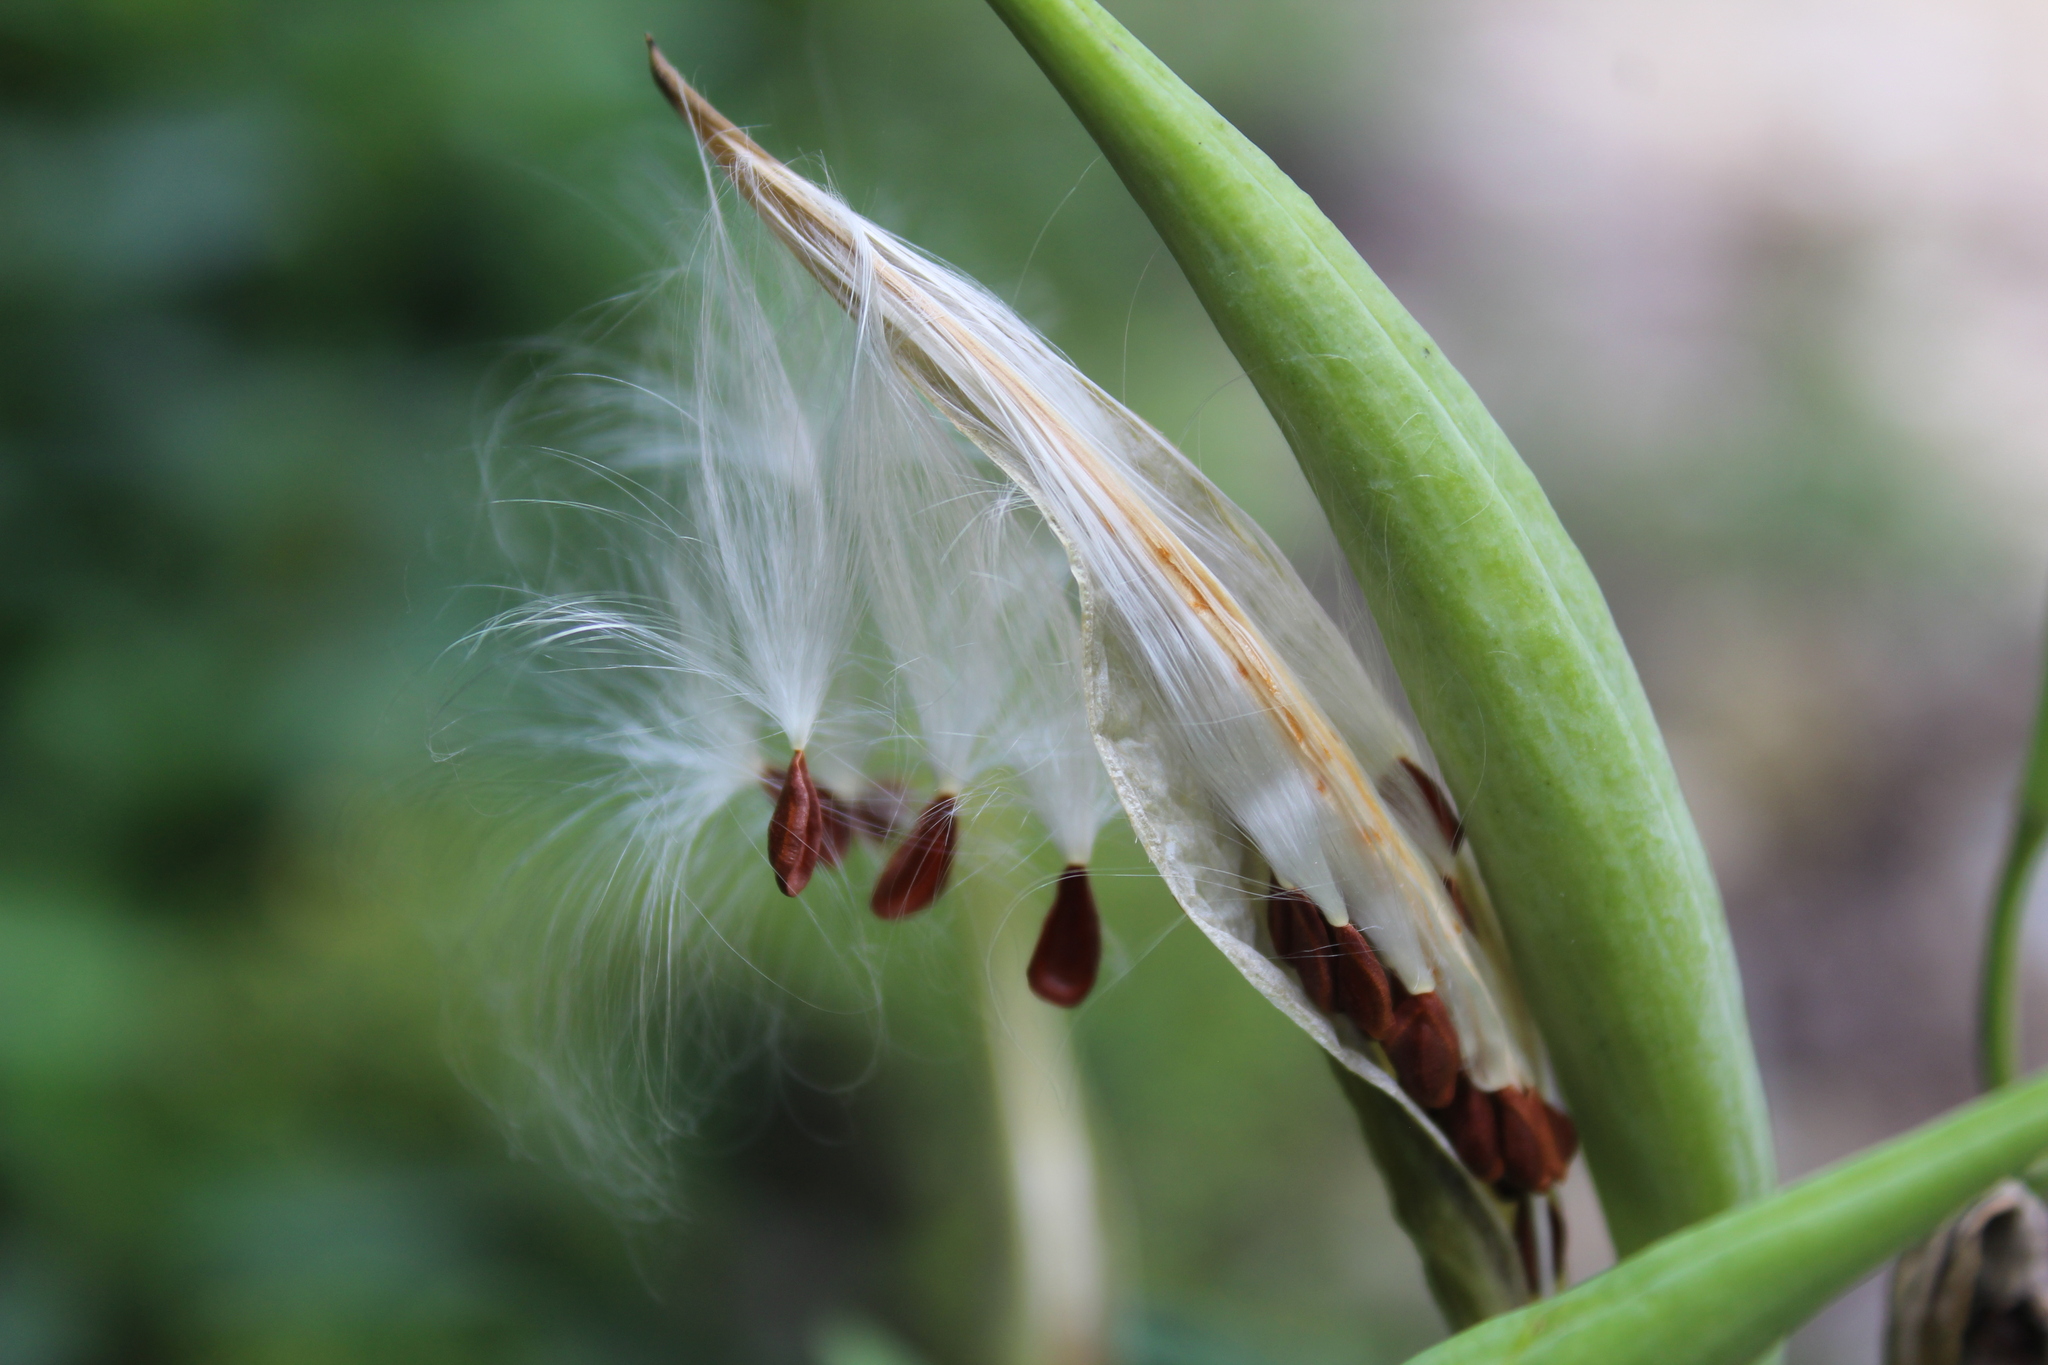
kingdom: Plantae
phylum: Tracheophyta
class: Magnoliopsida
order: Gentianales
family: Apocynaceae
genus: Asclepias
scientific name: Asclepias curassavica
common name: Bloodflower
